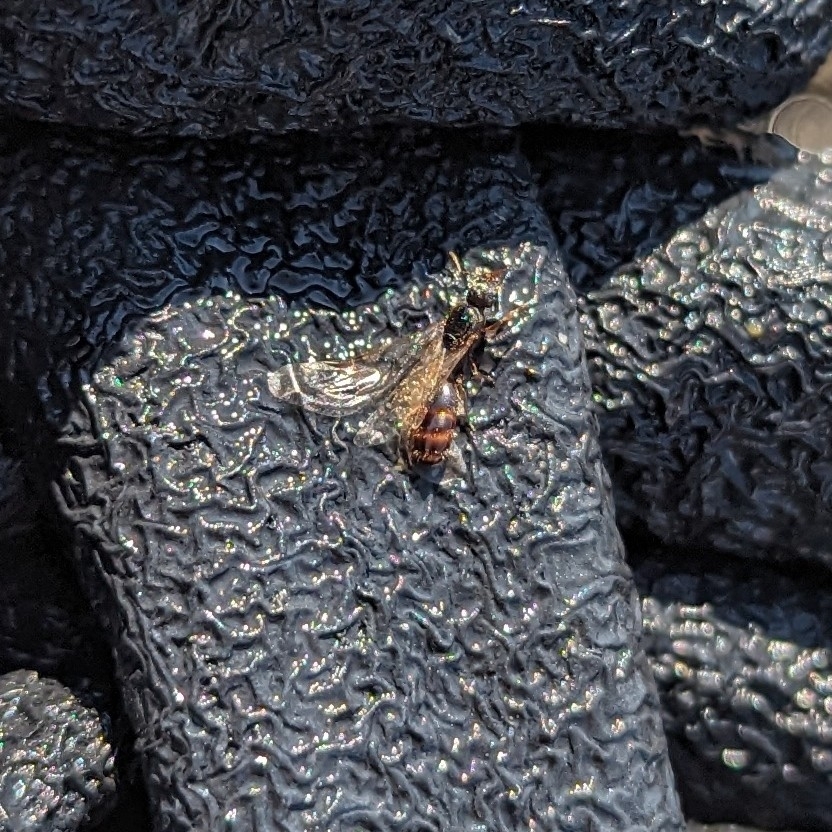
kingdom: Animalia
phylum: Arthropoda
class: Insecta
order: Hymenoptera
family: Formicidae
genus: Tetramorium
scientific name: Tetramorium immigrans
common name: Pavement ant
